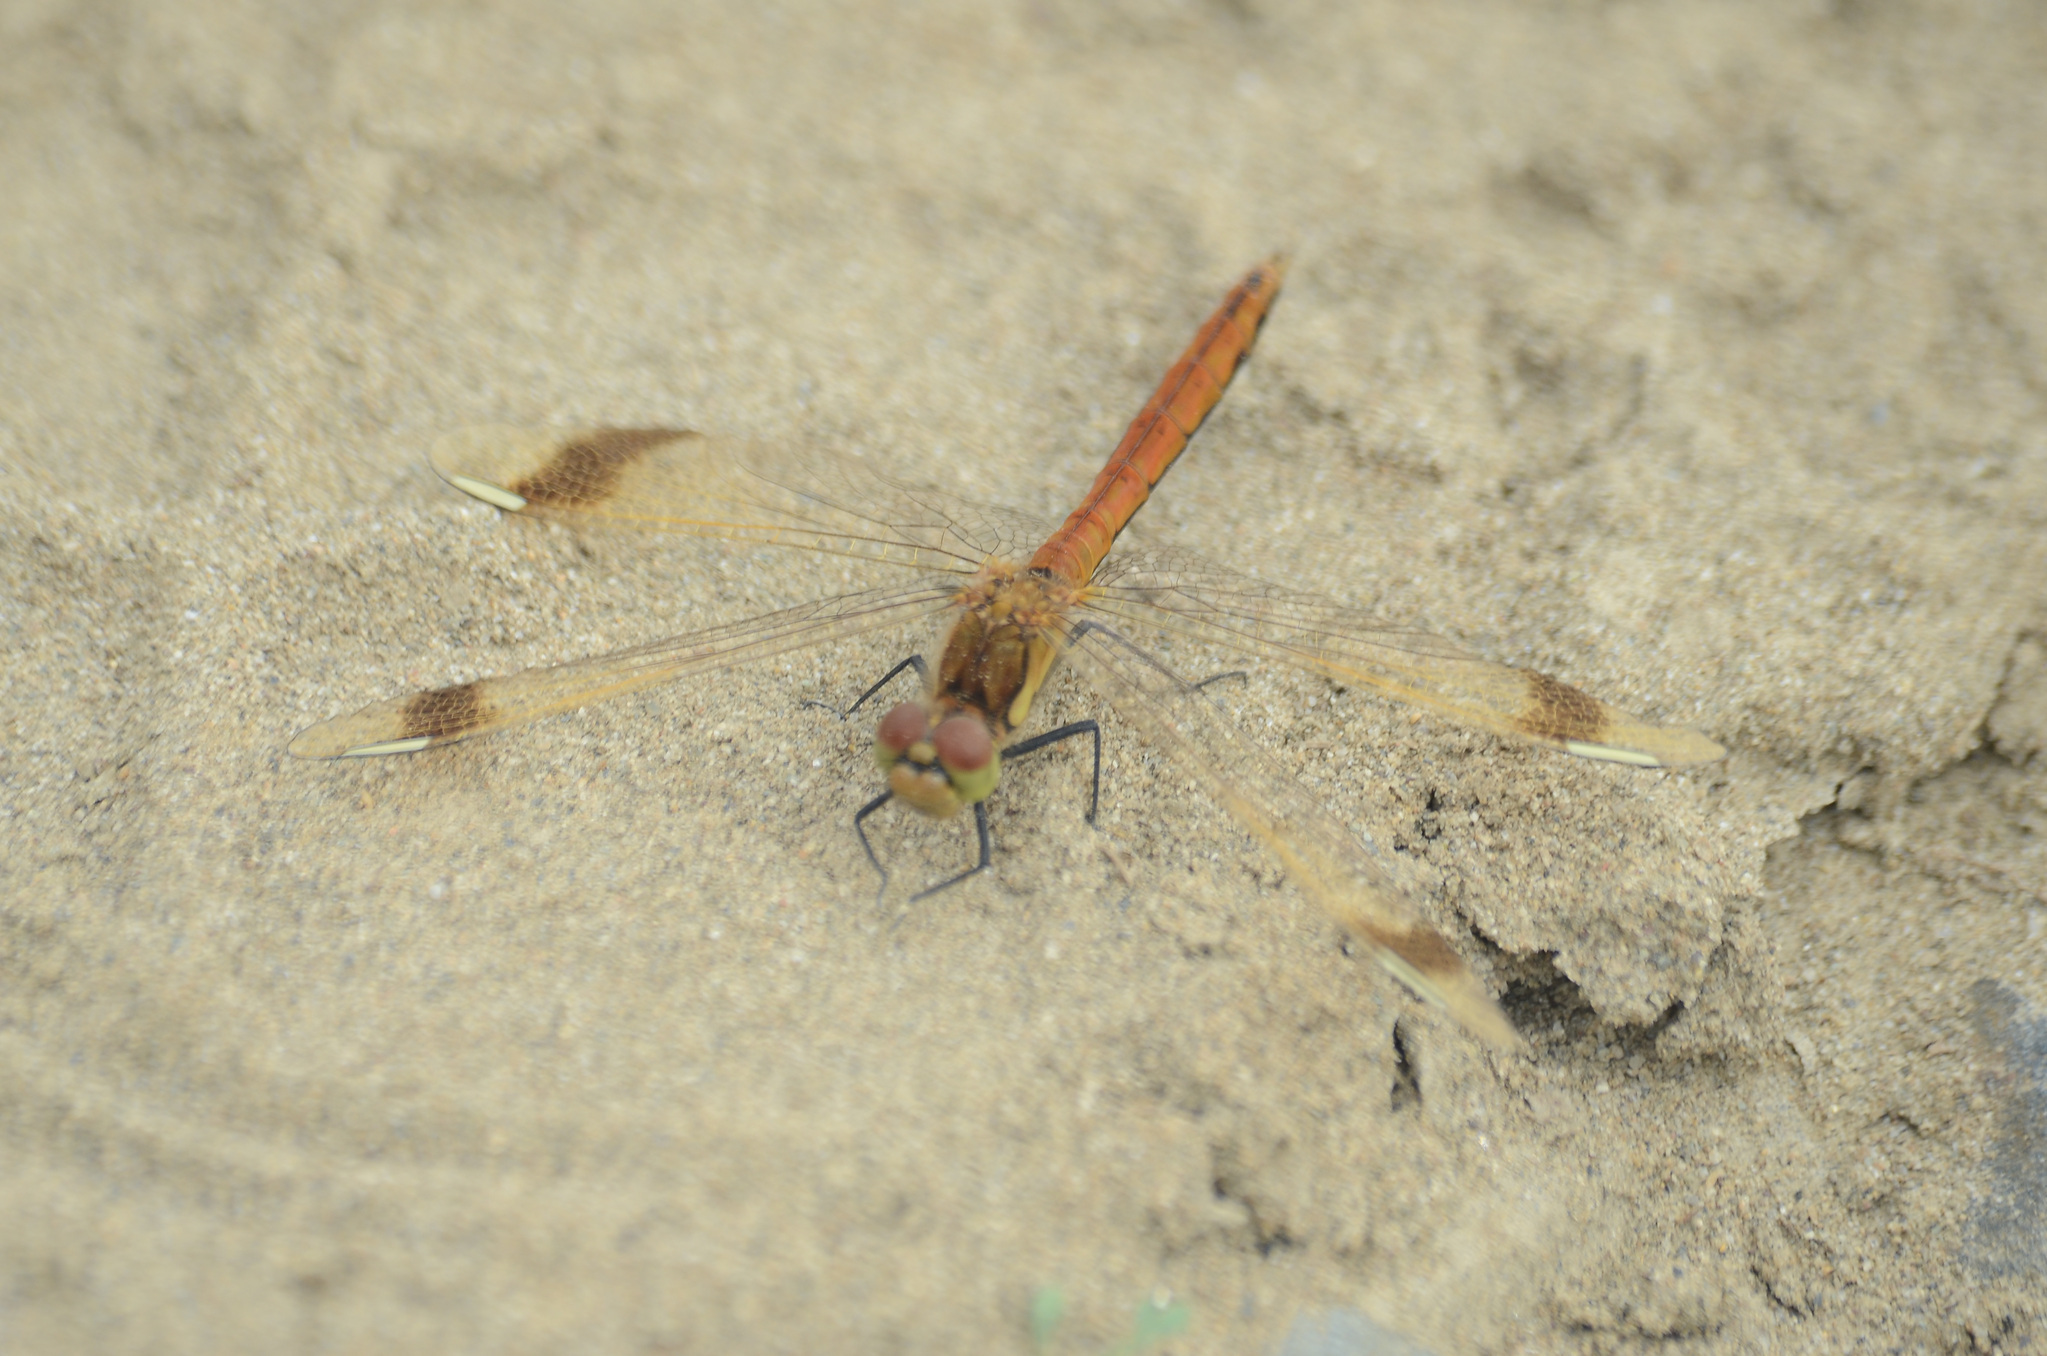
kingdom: Animalia
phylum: Arthropoda
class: Insecta
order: Odonata
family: Libellulidae
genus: Sympetrum
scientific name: Sympetrum pedemontanum
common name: Banded darter
